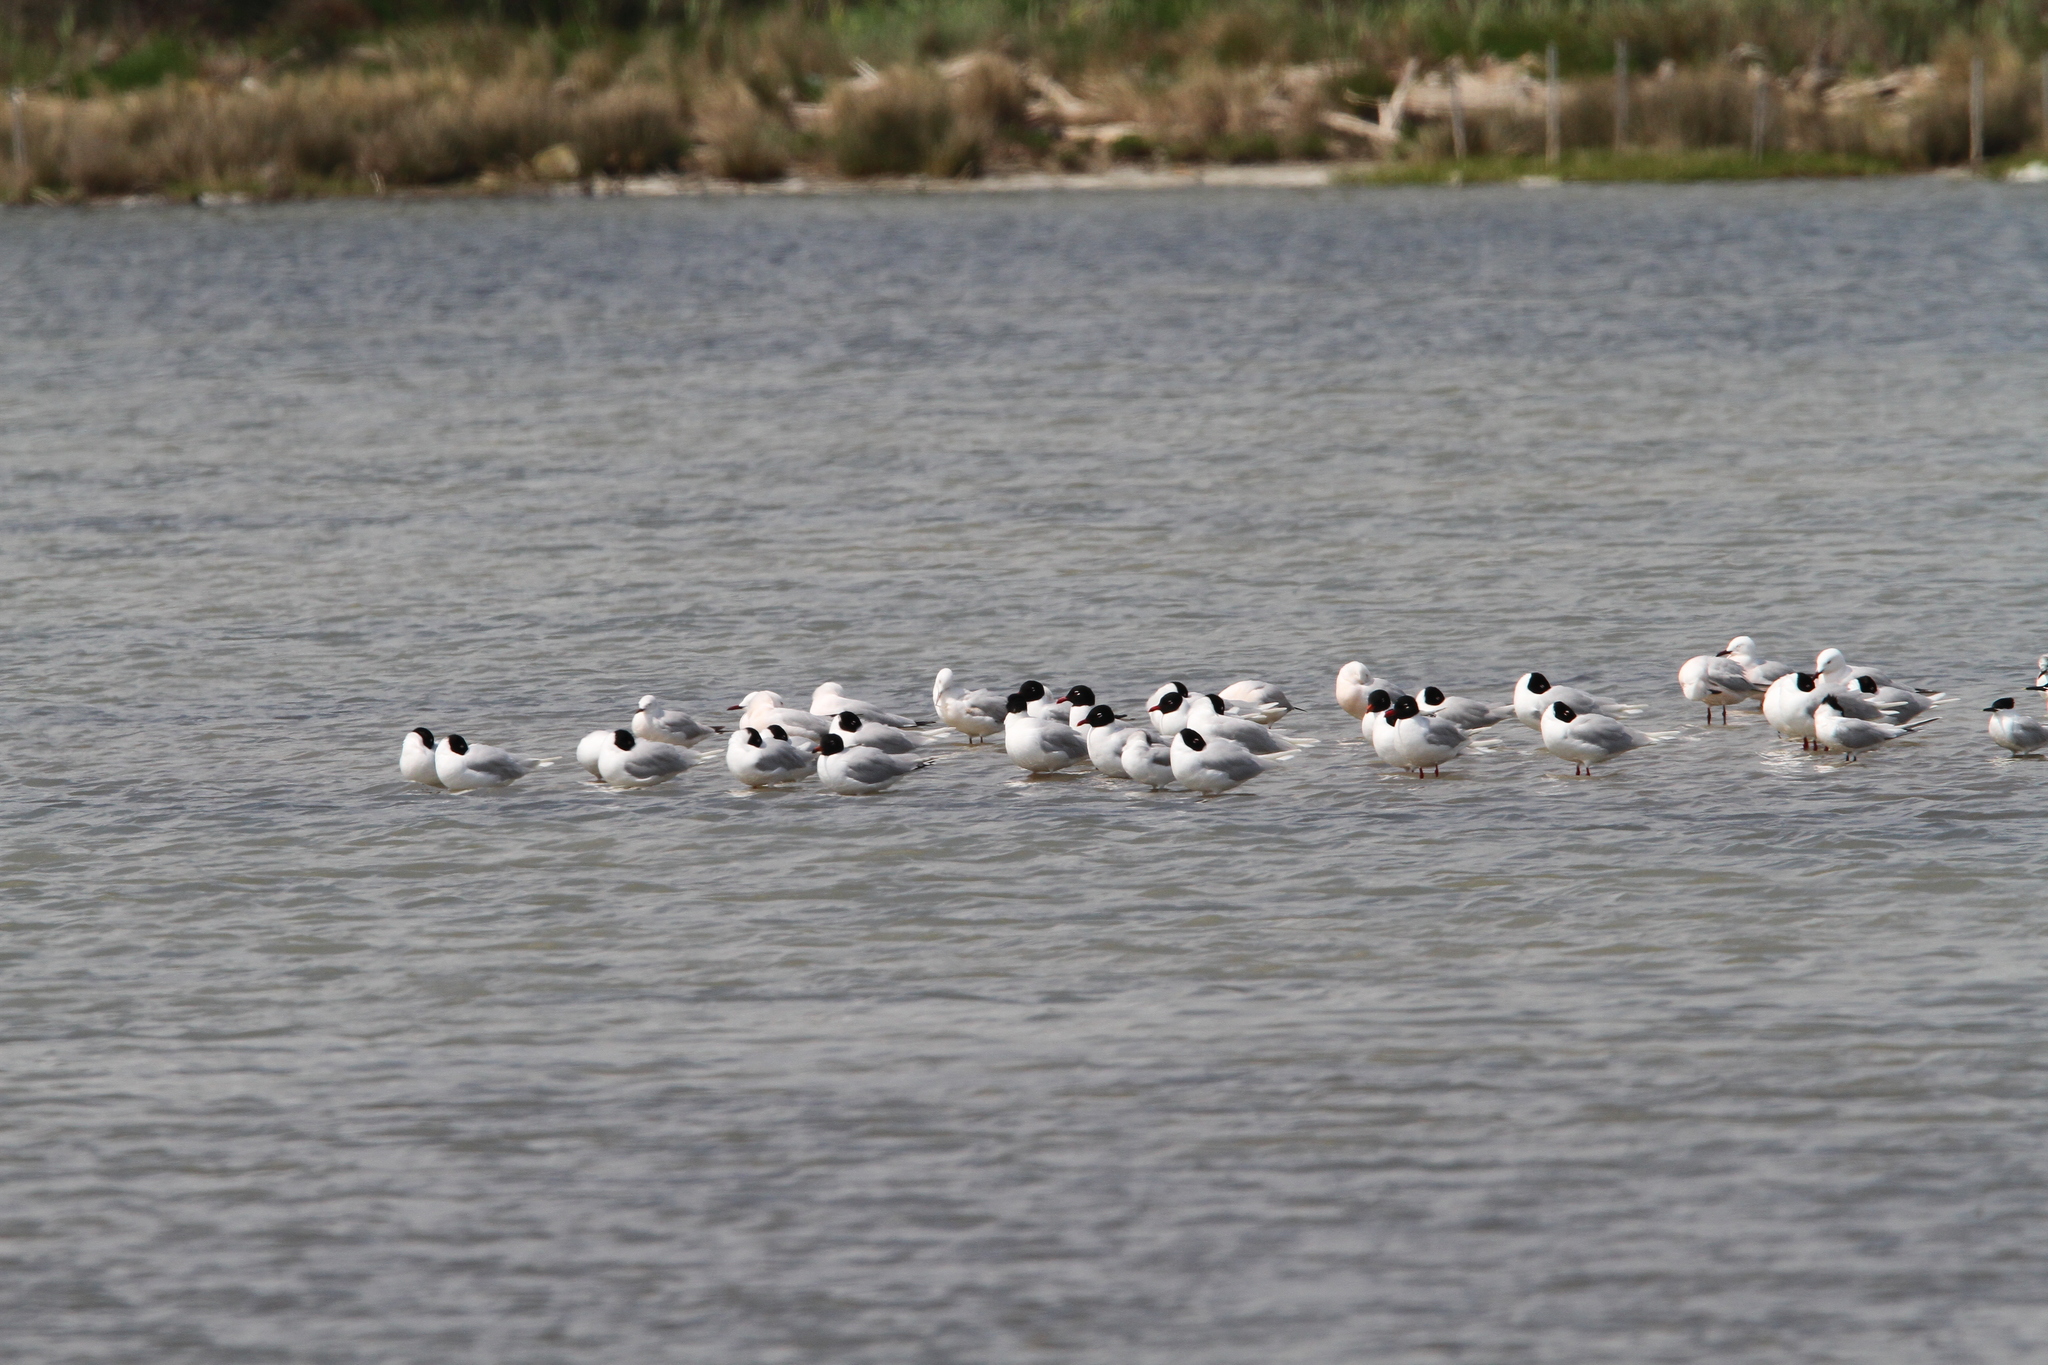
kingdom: Animalia
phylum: Chordata
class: Aves
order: Charadriiformes
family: Laridae
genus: Ichthyaetus
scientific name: Ichthyaetus melanocephalus
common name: Mediterranean gull
